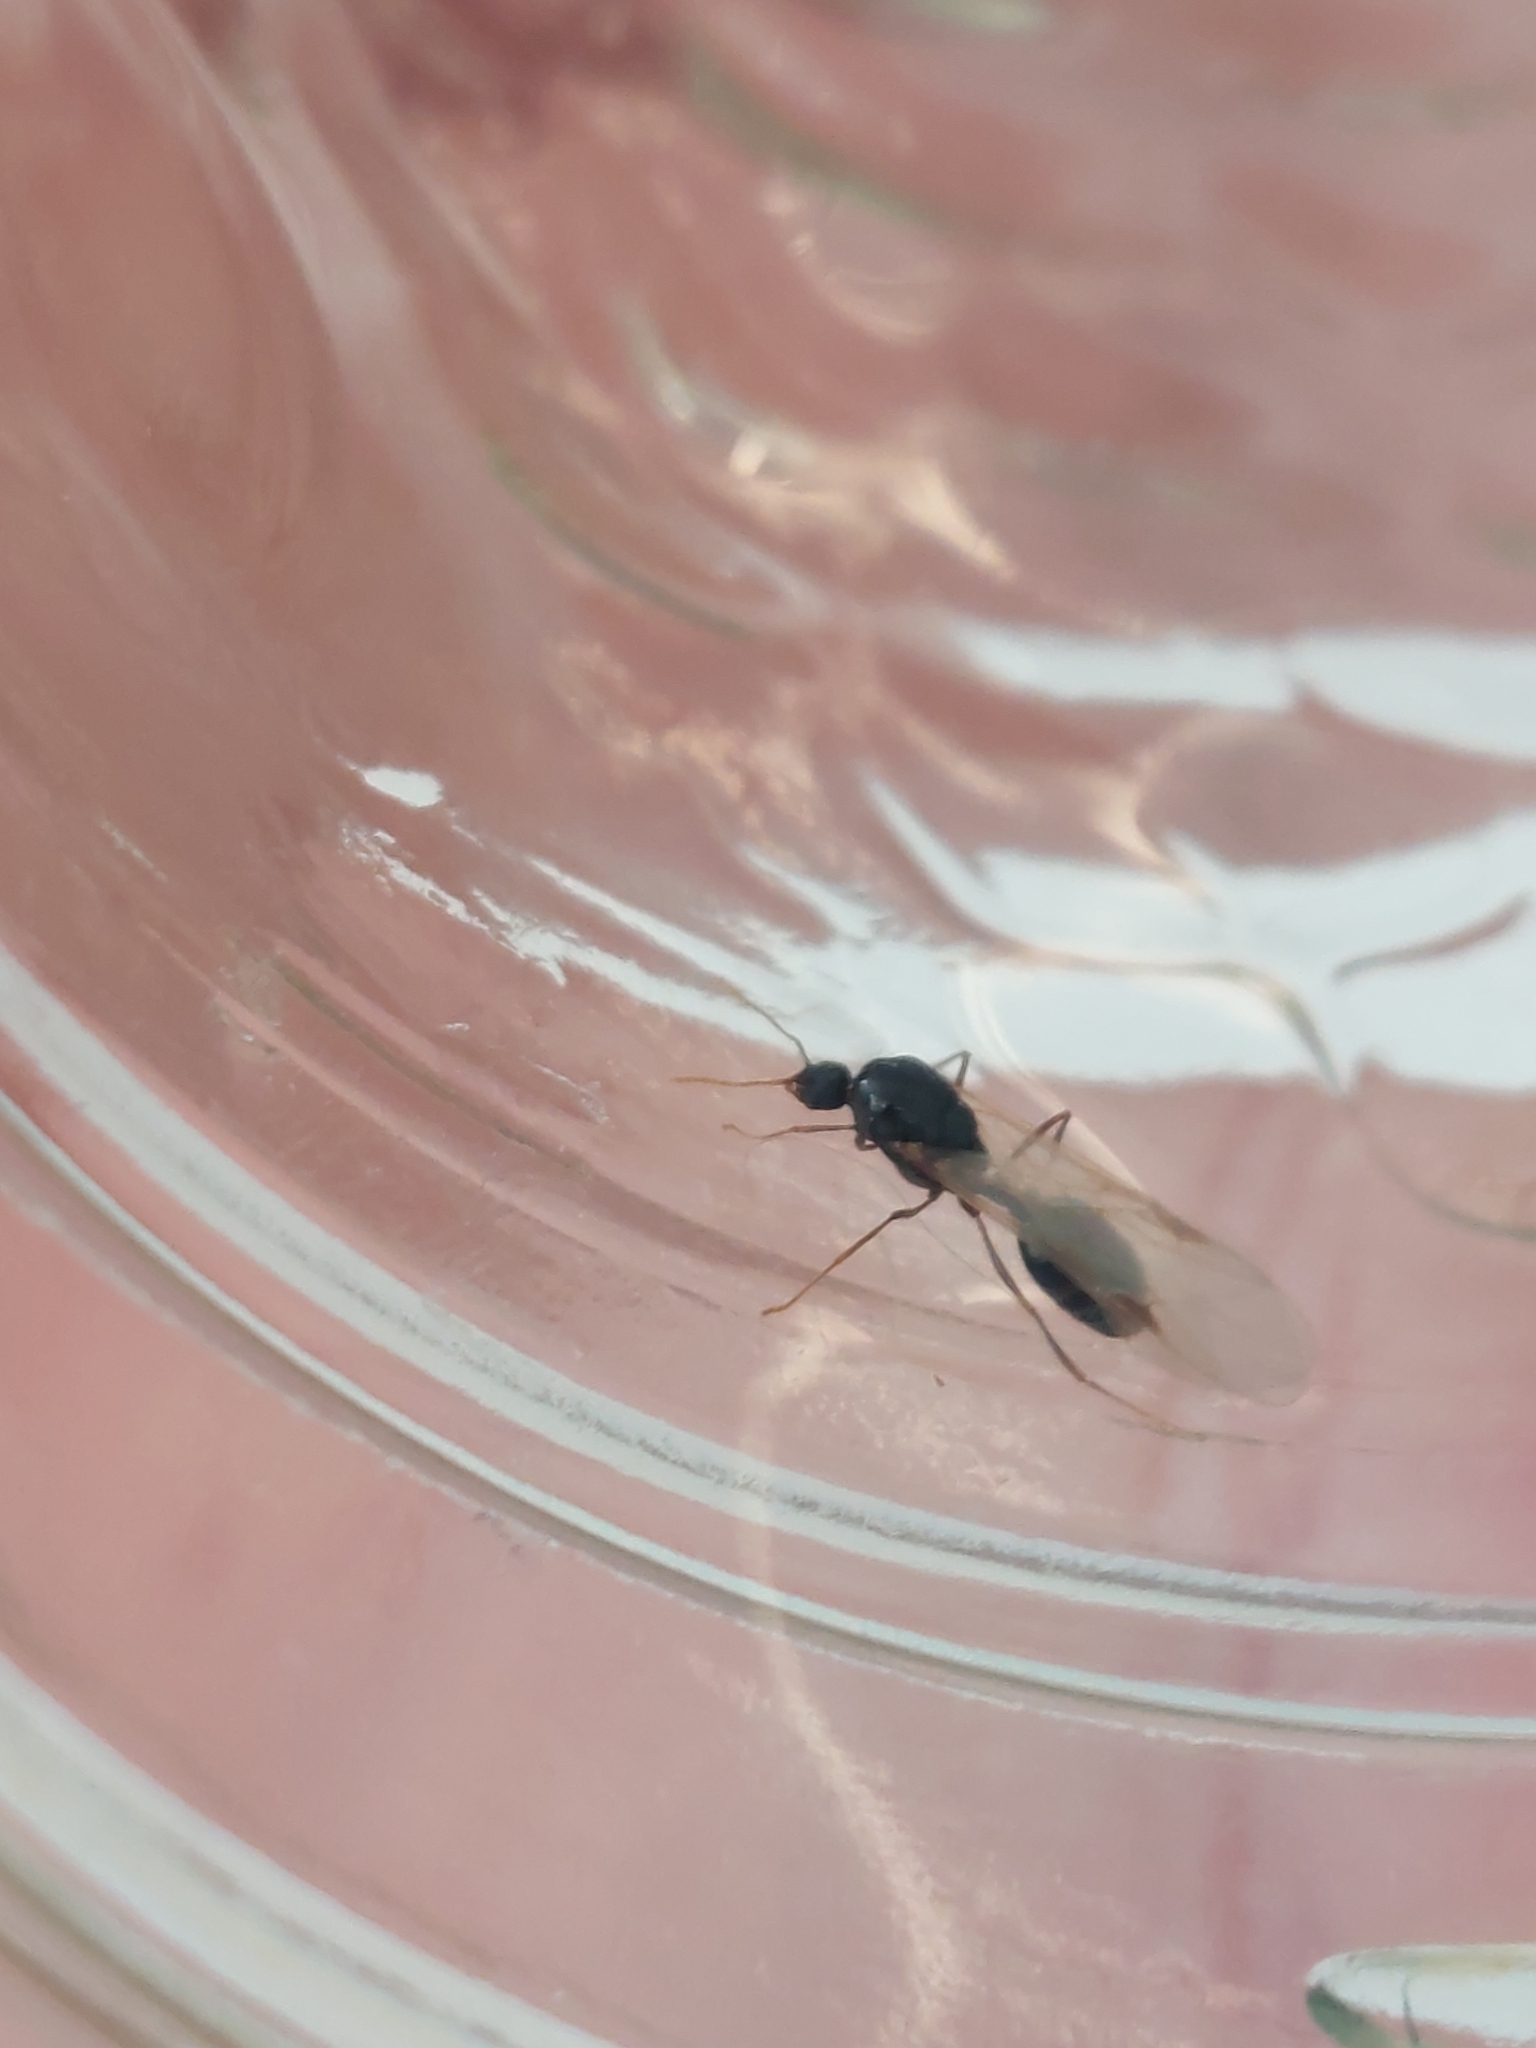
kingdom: Animalia
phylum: Arthropoda
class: Insecta
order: Hymenoptera
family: Formicidae
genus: Tetramorium
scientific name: Tetramorium immigrans
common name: Pavement ant
